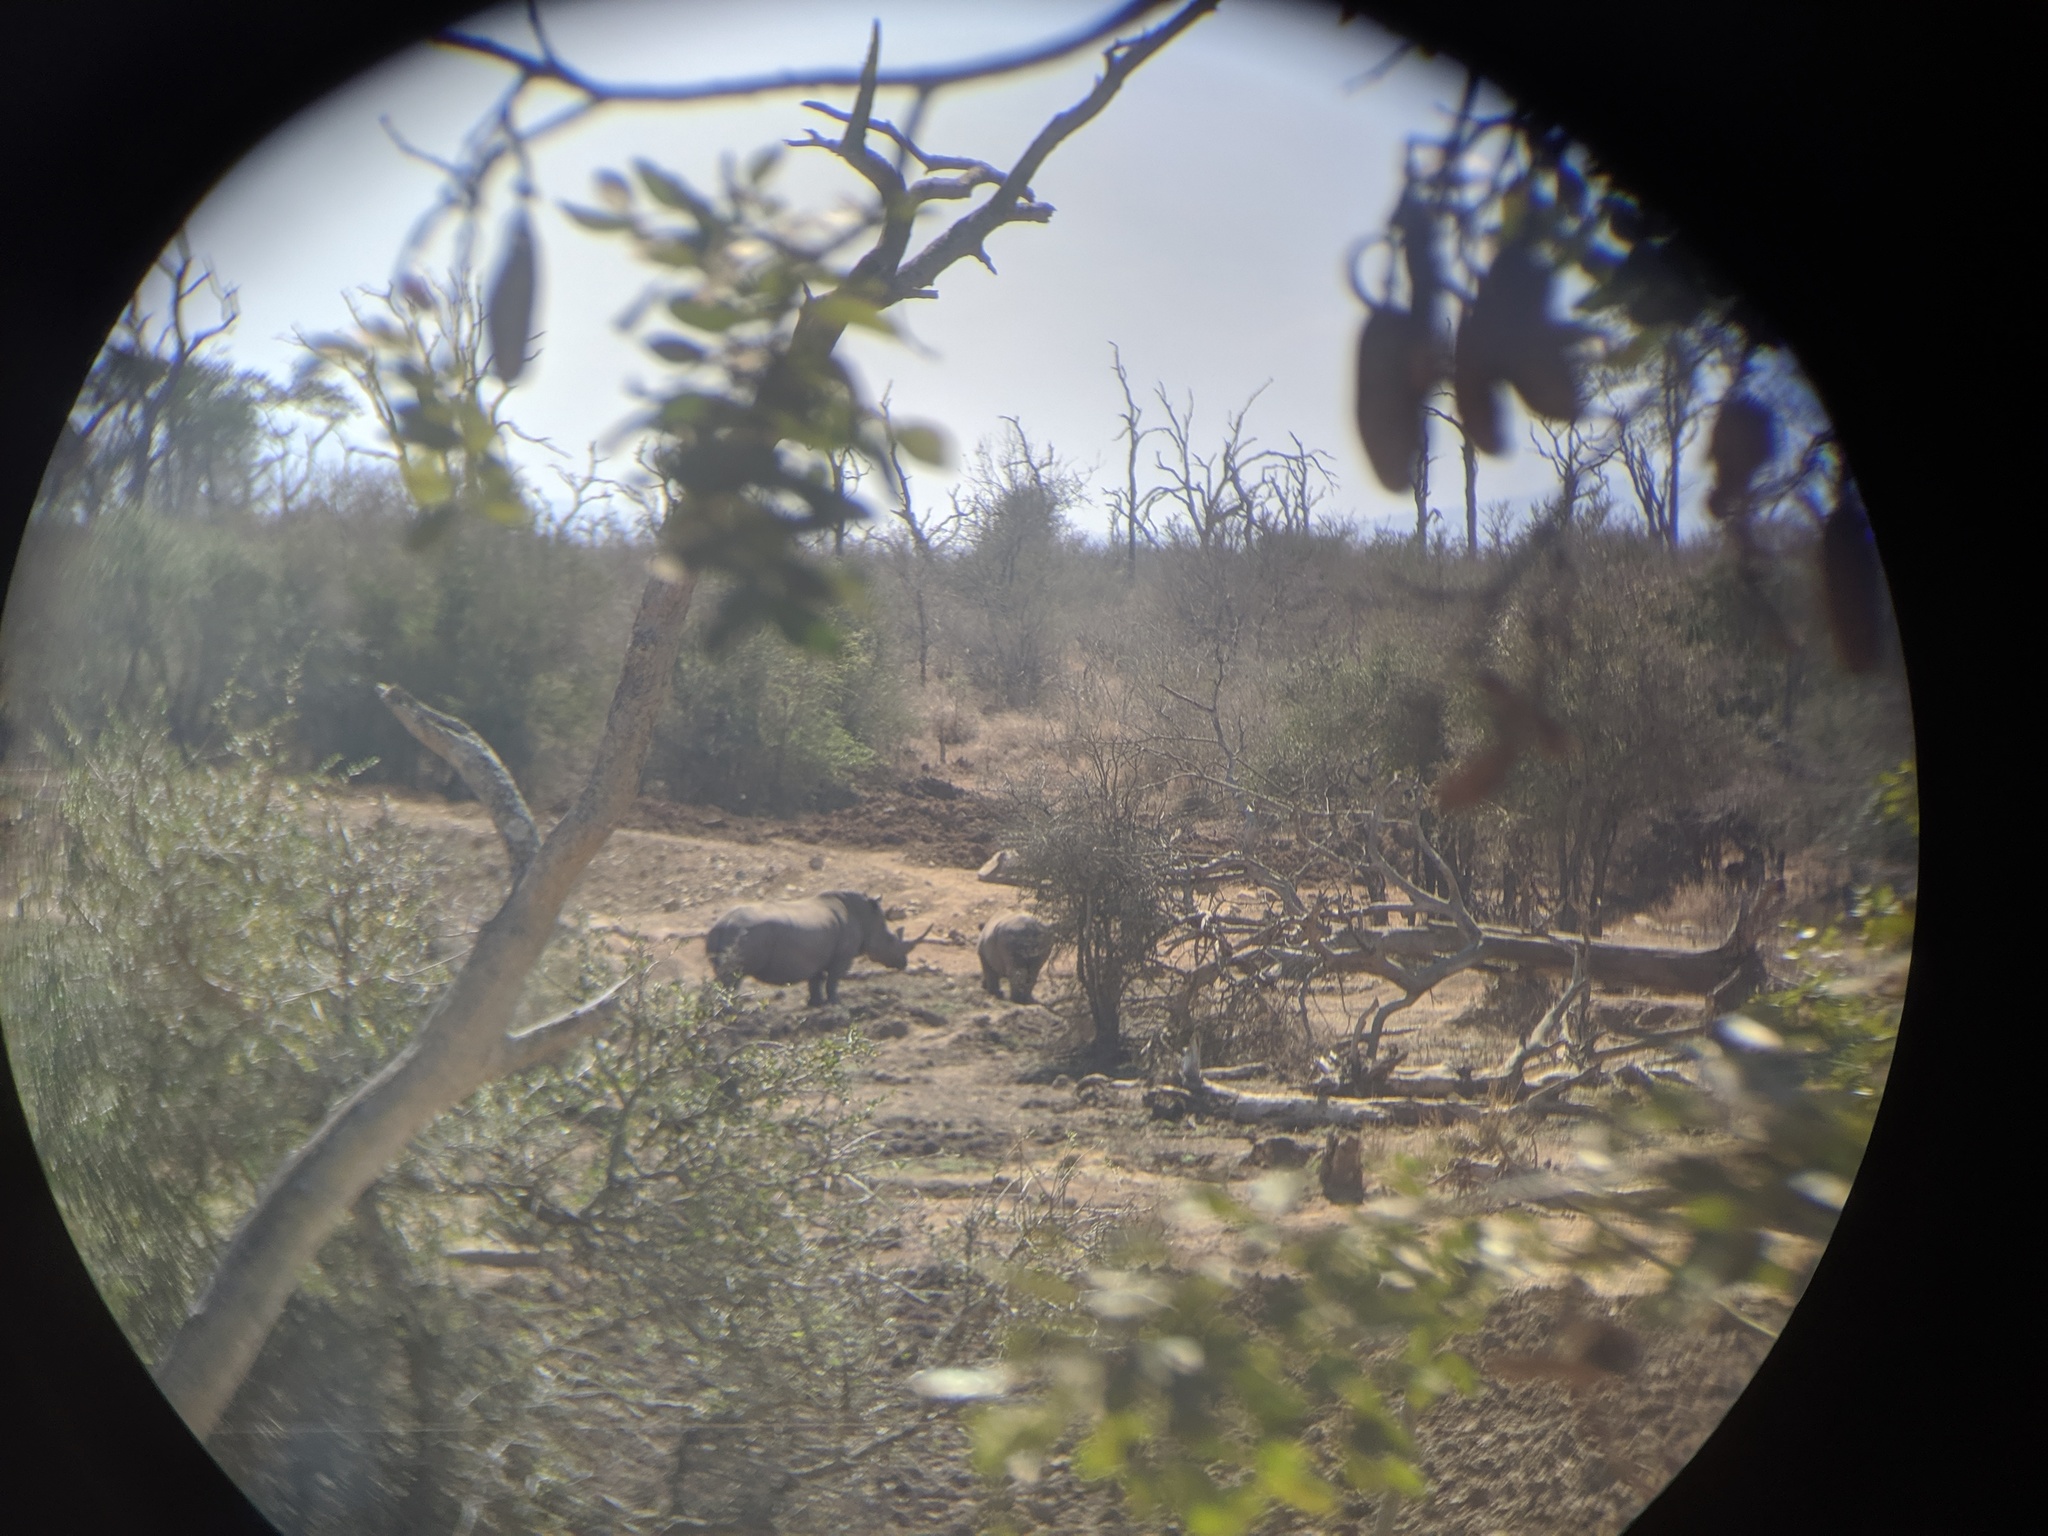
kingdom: Animalia
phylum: Chordata
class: Mammalia
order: Perissodactyla
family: Rhinocerotidae
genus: Ceratotherium
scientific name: Ceratotherium simum
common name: White rhinoceros
